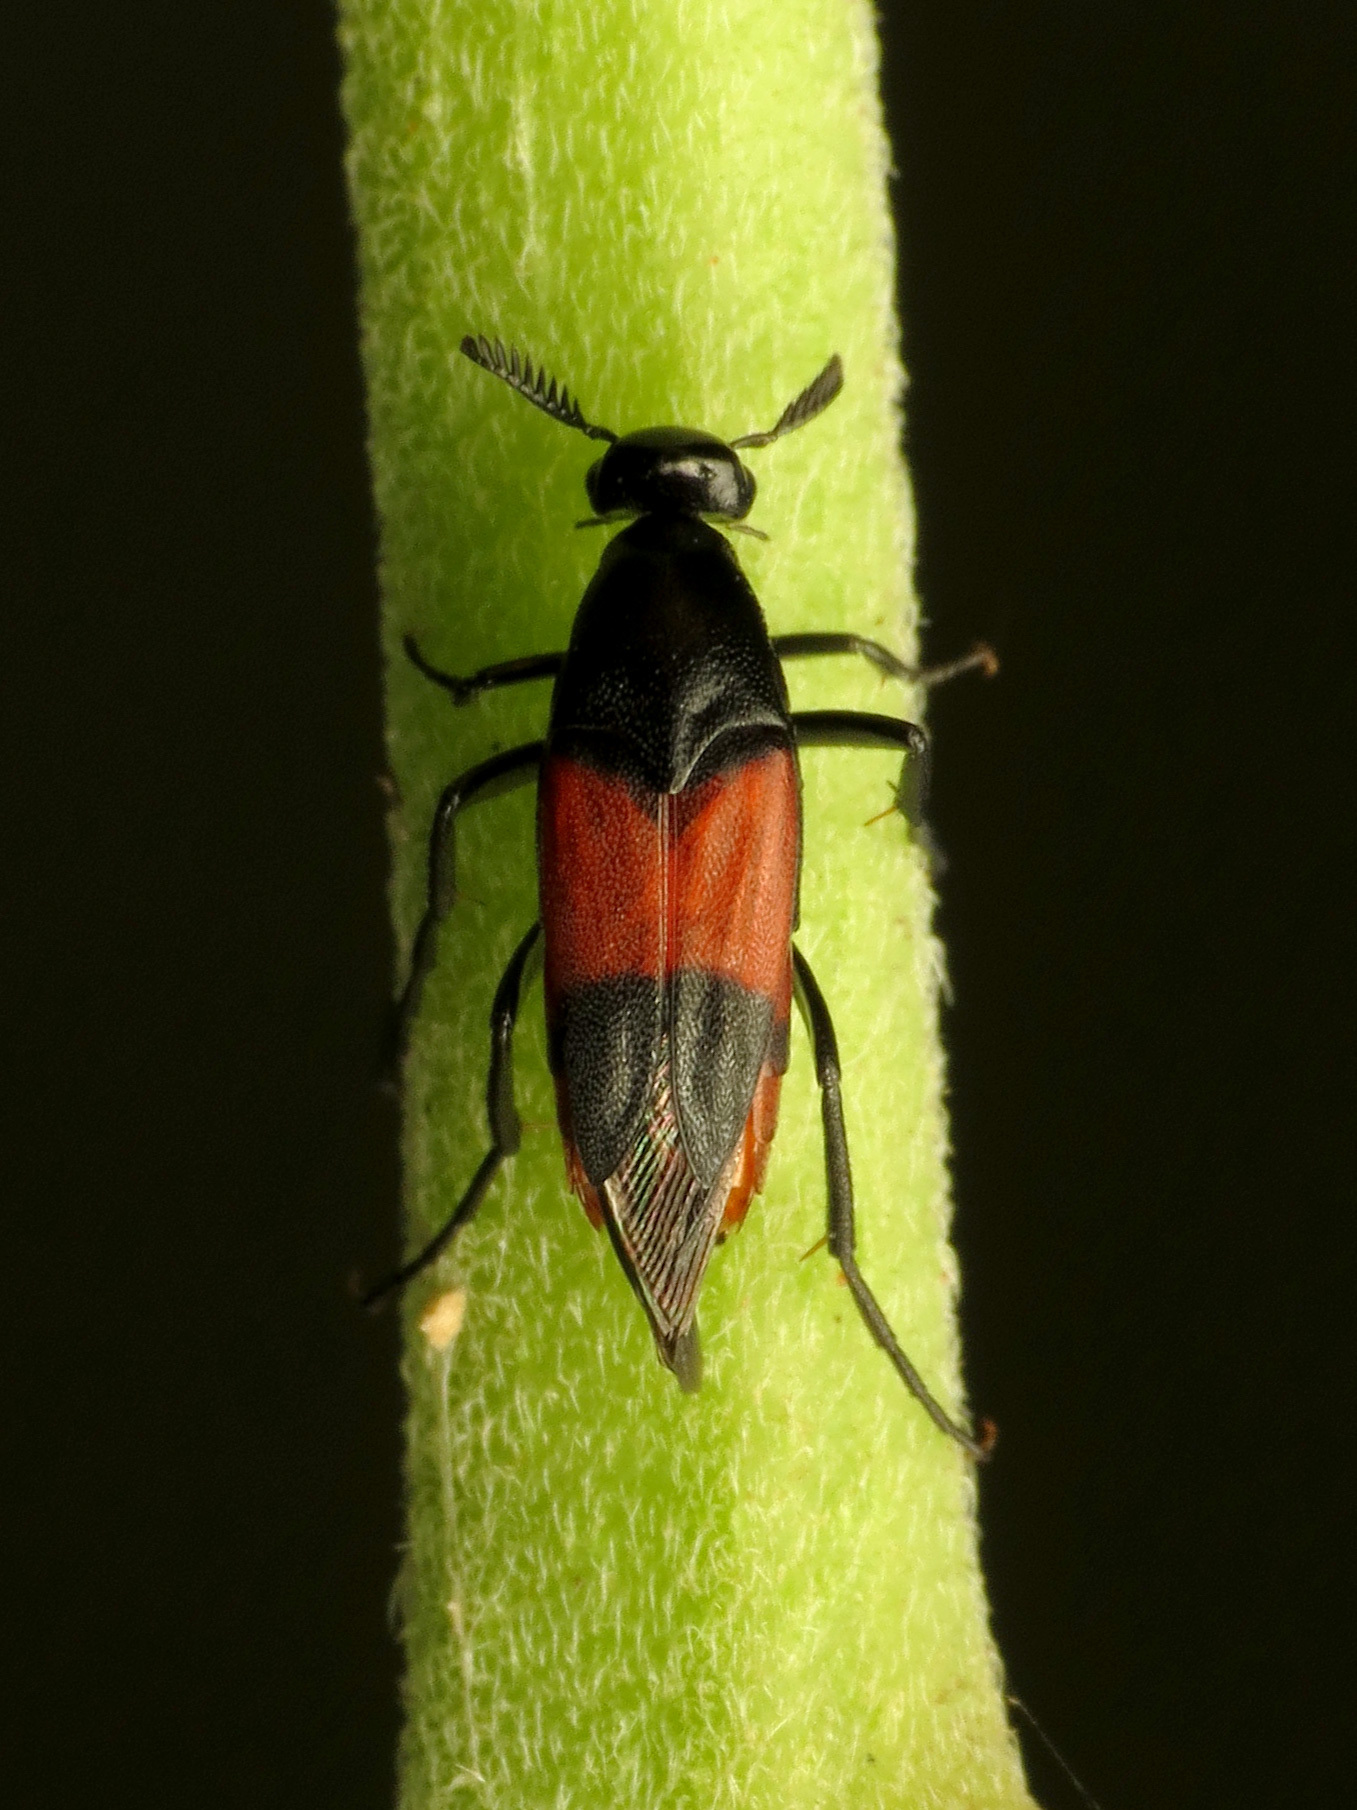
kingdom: Animalia
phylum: Arthropoda
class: Insecta
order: Coleoptera
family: Ripiphoridae
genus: Macrosiagon
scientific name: Macrosiagon cruentum
